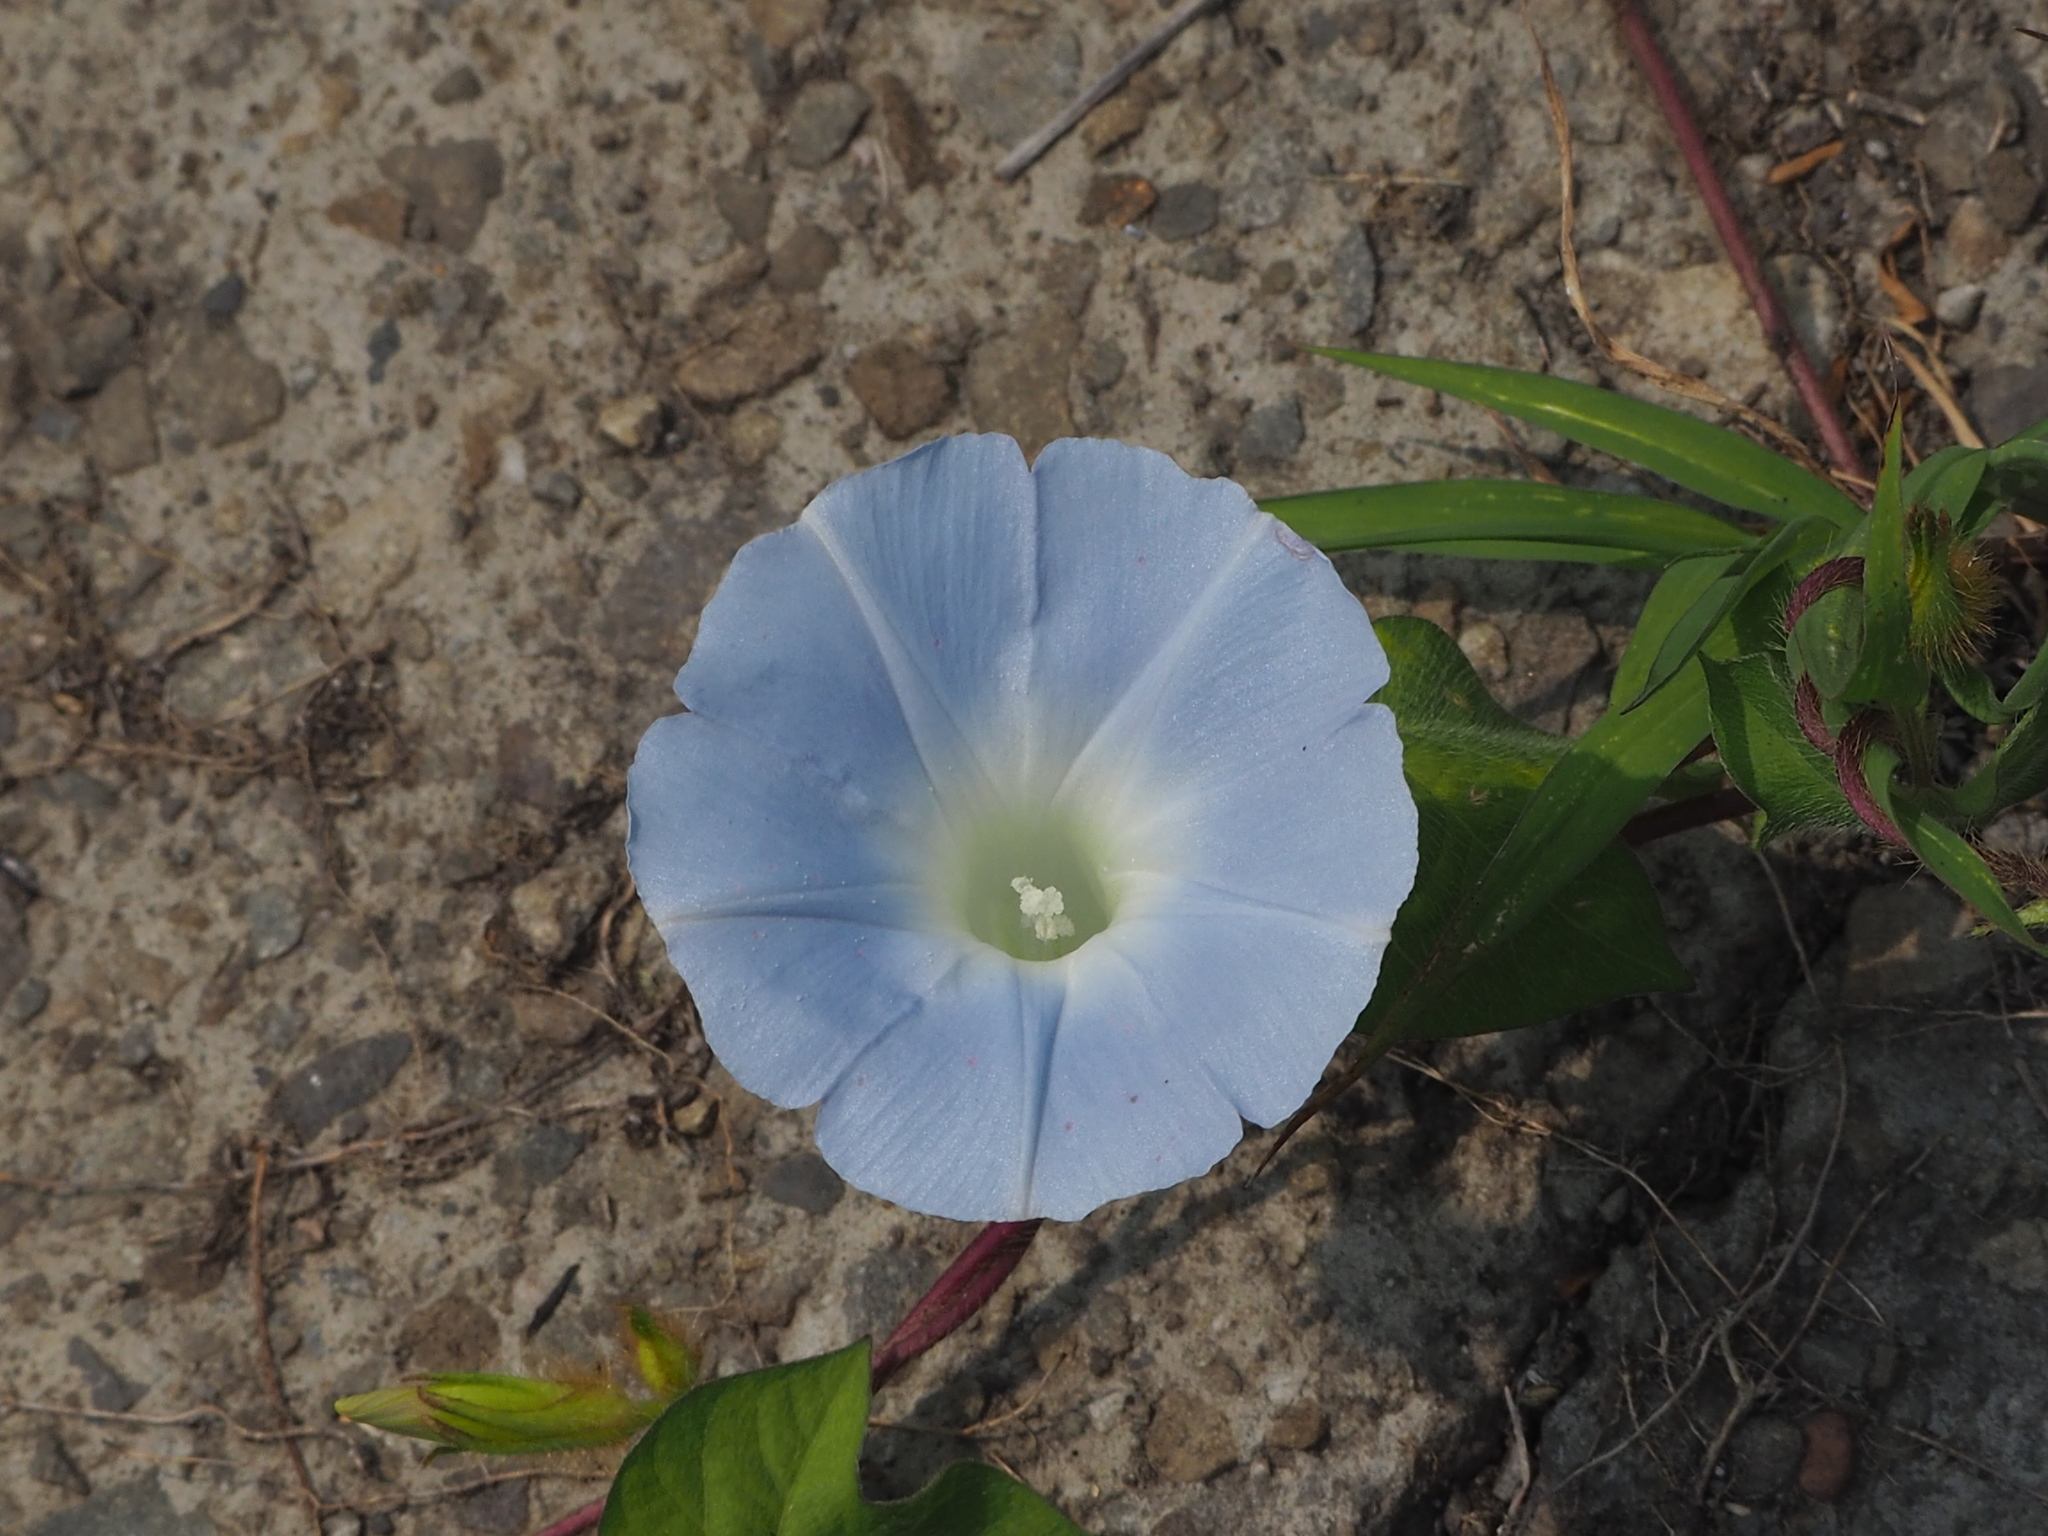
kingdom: Plantae
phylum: Tracheophyta
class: Magnoliopsida
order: Solanales
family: Convolvulaceae
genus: Ipomoea
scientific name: Ipomoea nil
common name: Japanese morning-glory
